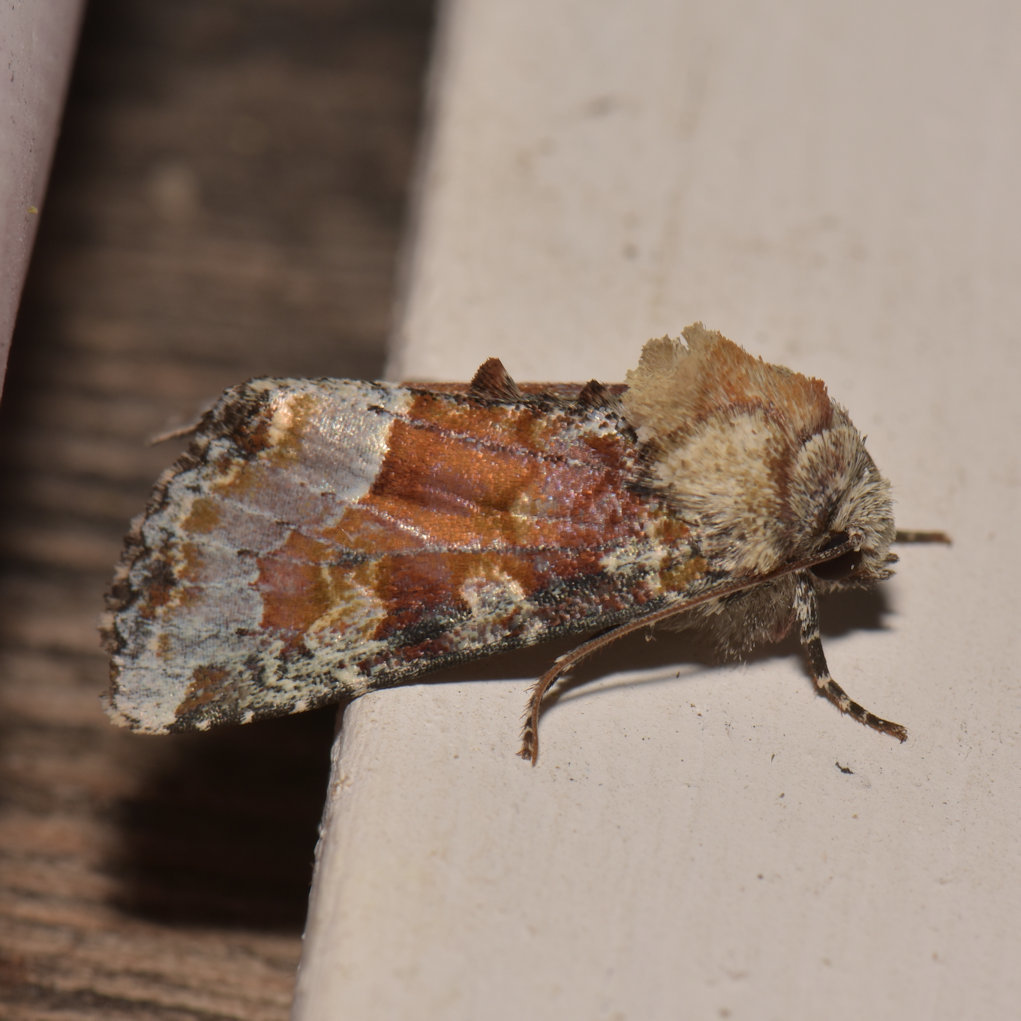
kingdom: Animalia
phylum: Arthropoda
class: Insecta
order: Lepidoptera
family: Noctuidae
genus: Oligia
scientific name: Oligia bridghamii
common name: Bridgham's brocade moth
